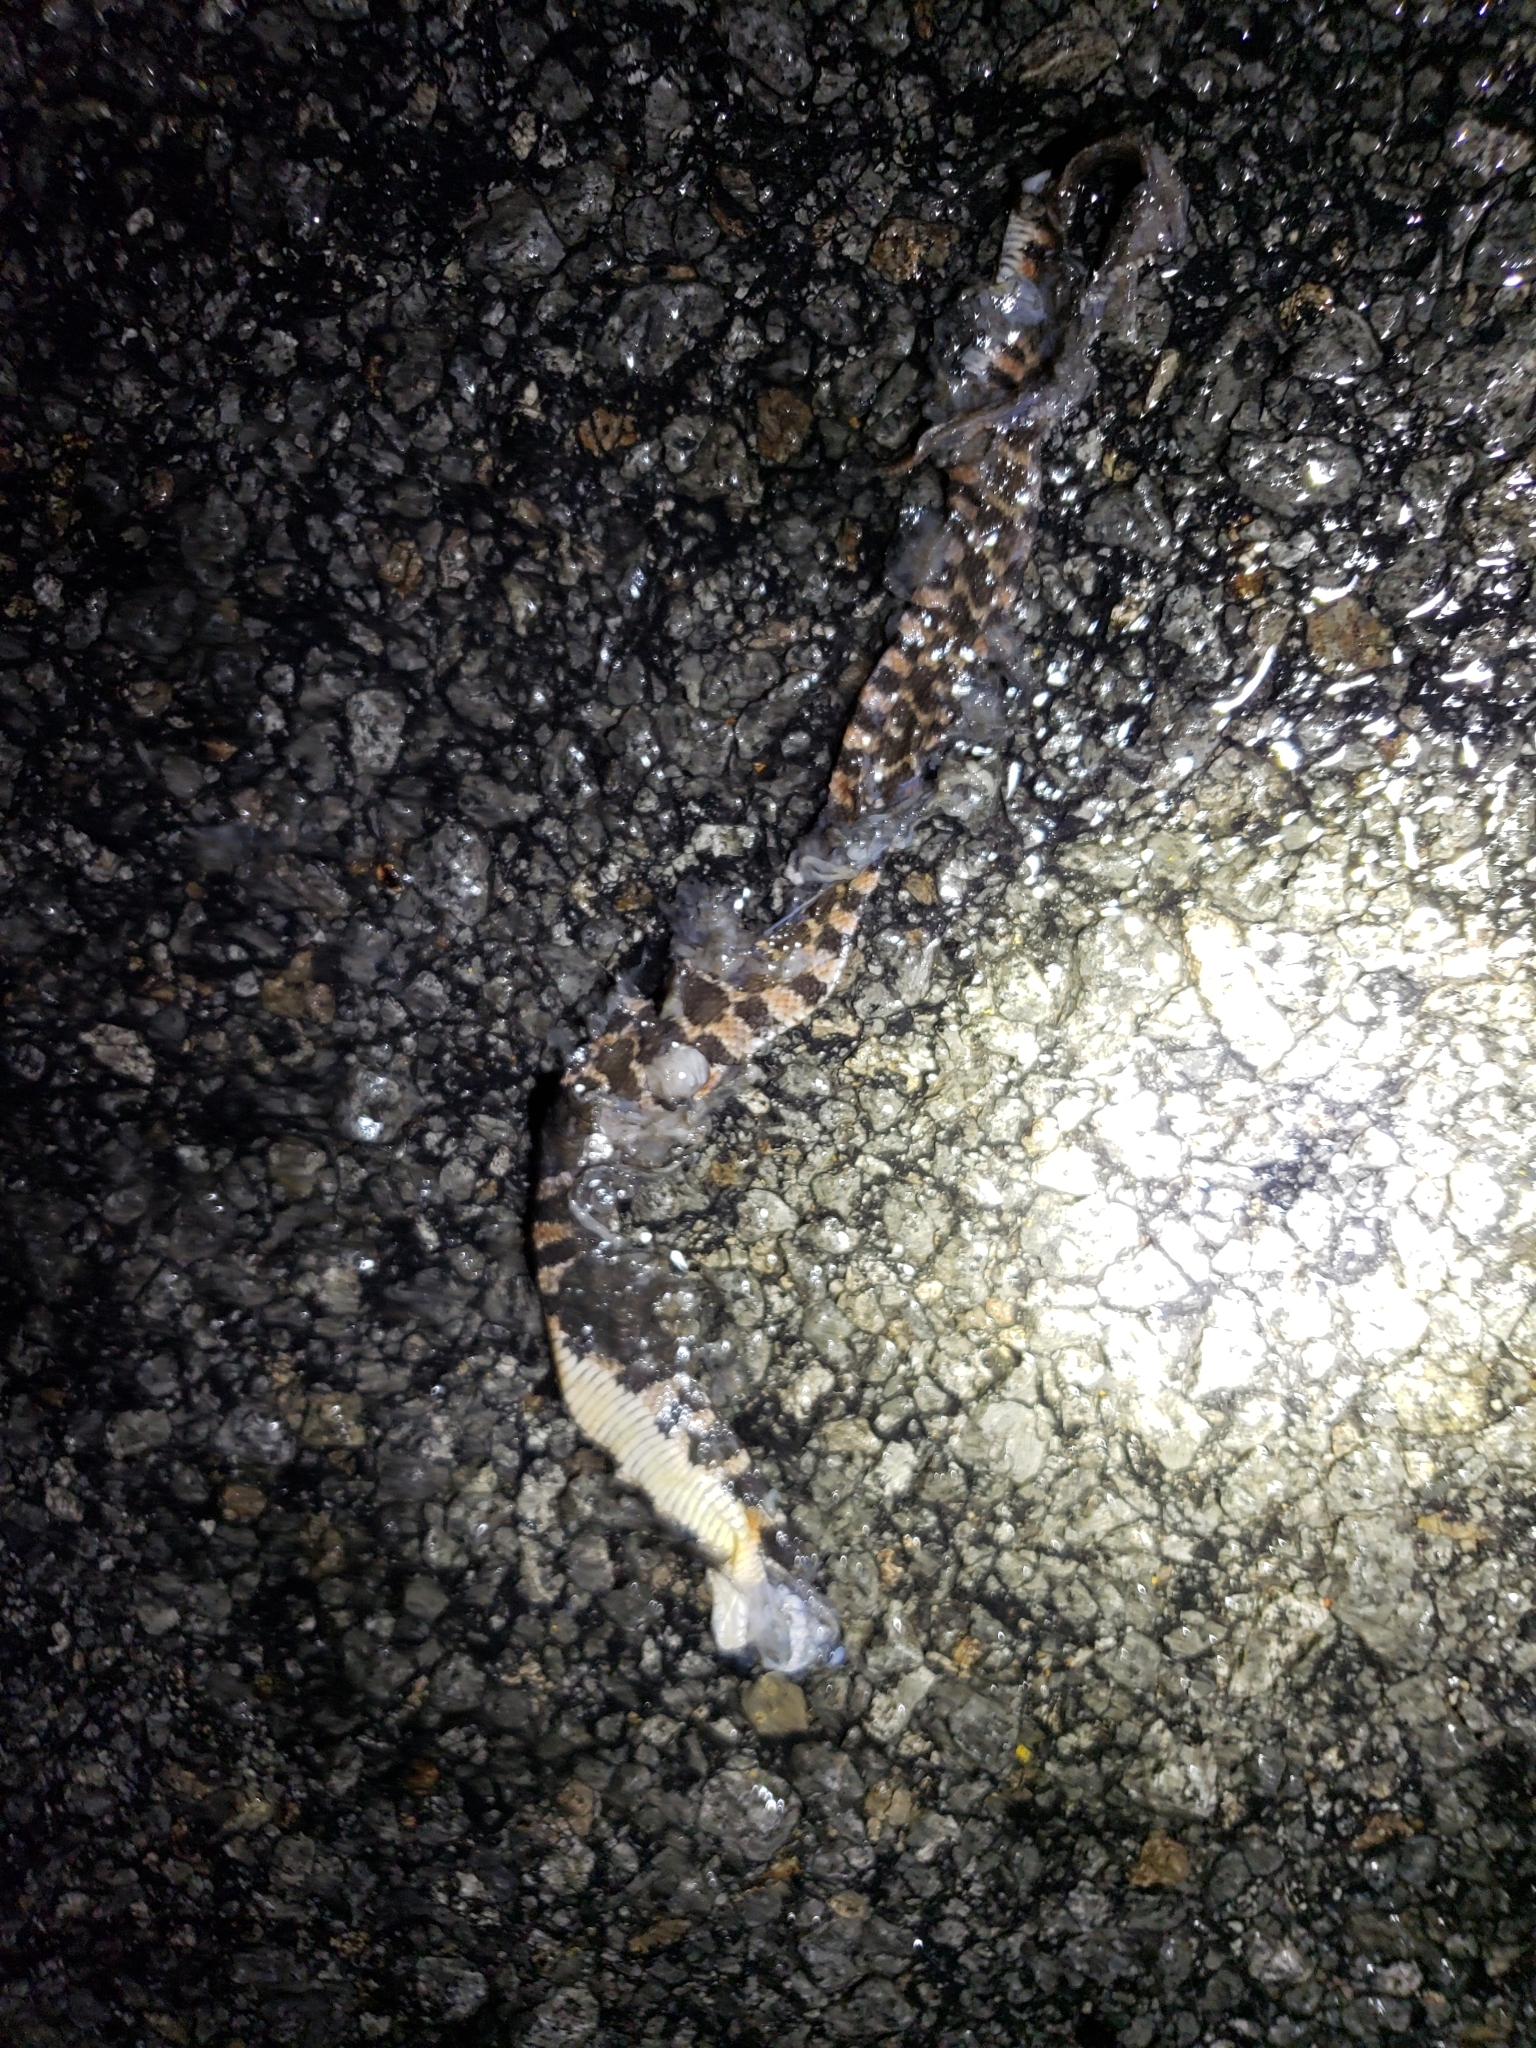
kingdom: Animalia
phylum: Chordata
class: Squamata
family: Colubridae
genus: Nerodia
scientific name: Nerodia erythrogaster
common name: Plainbelly water snake
